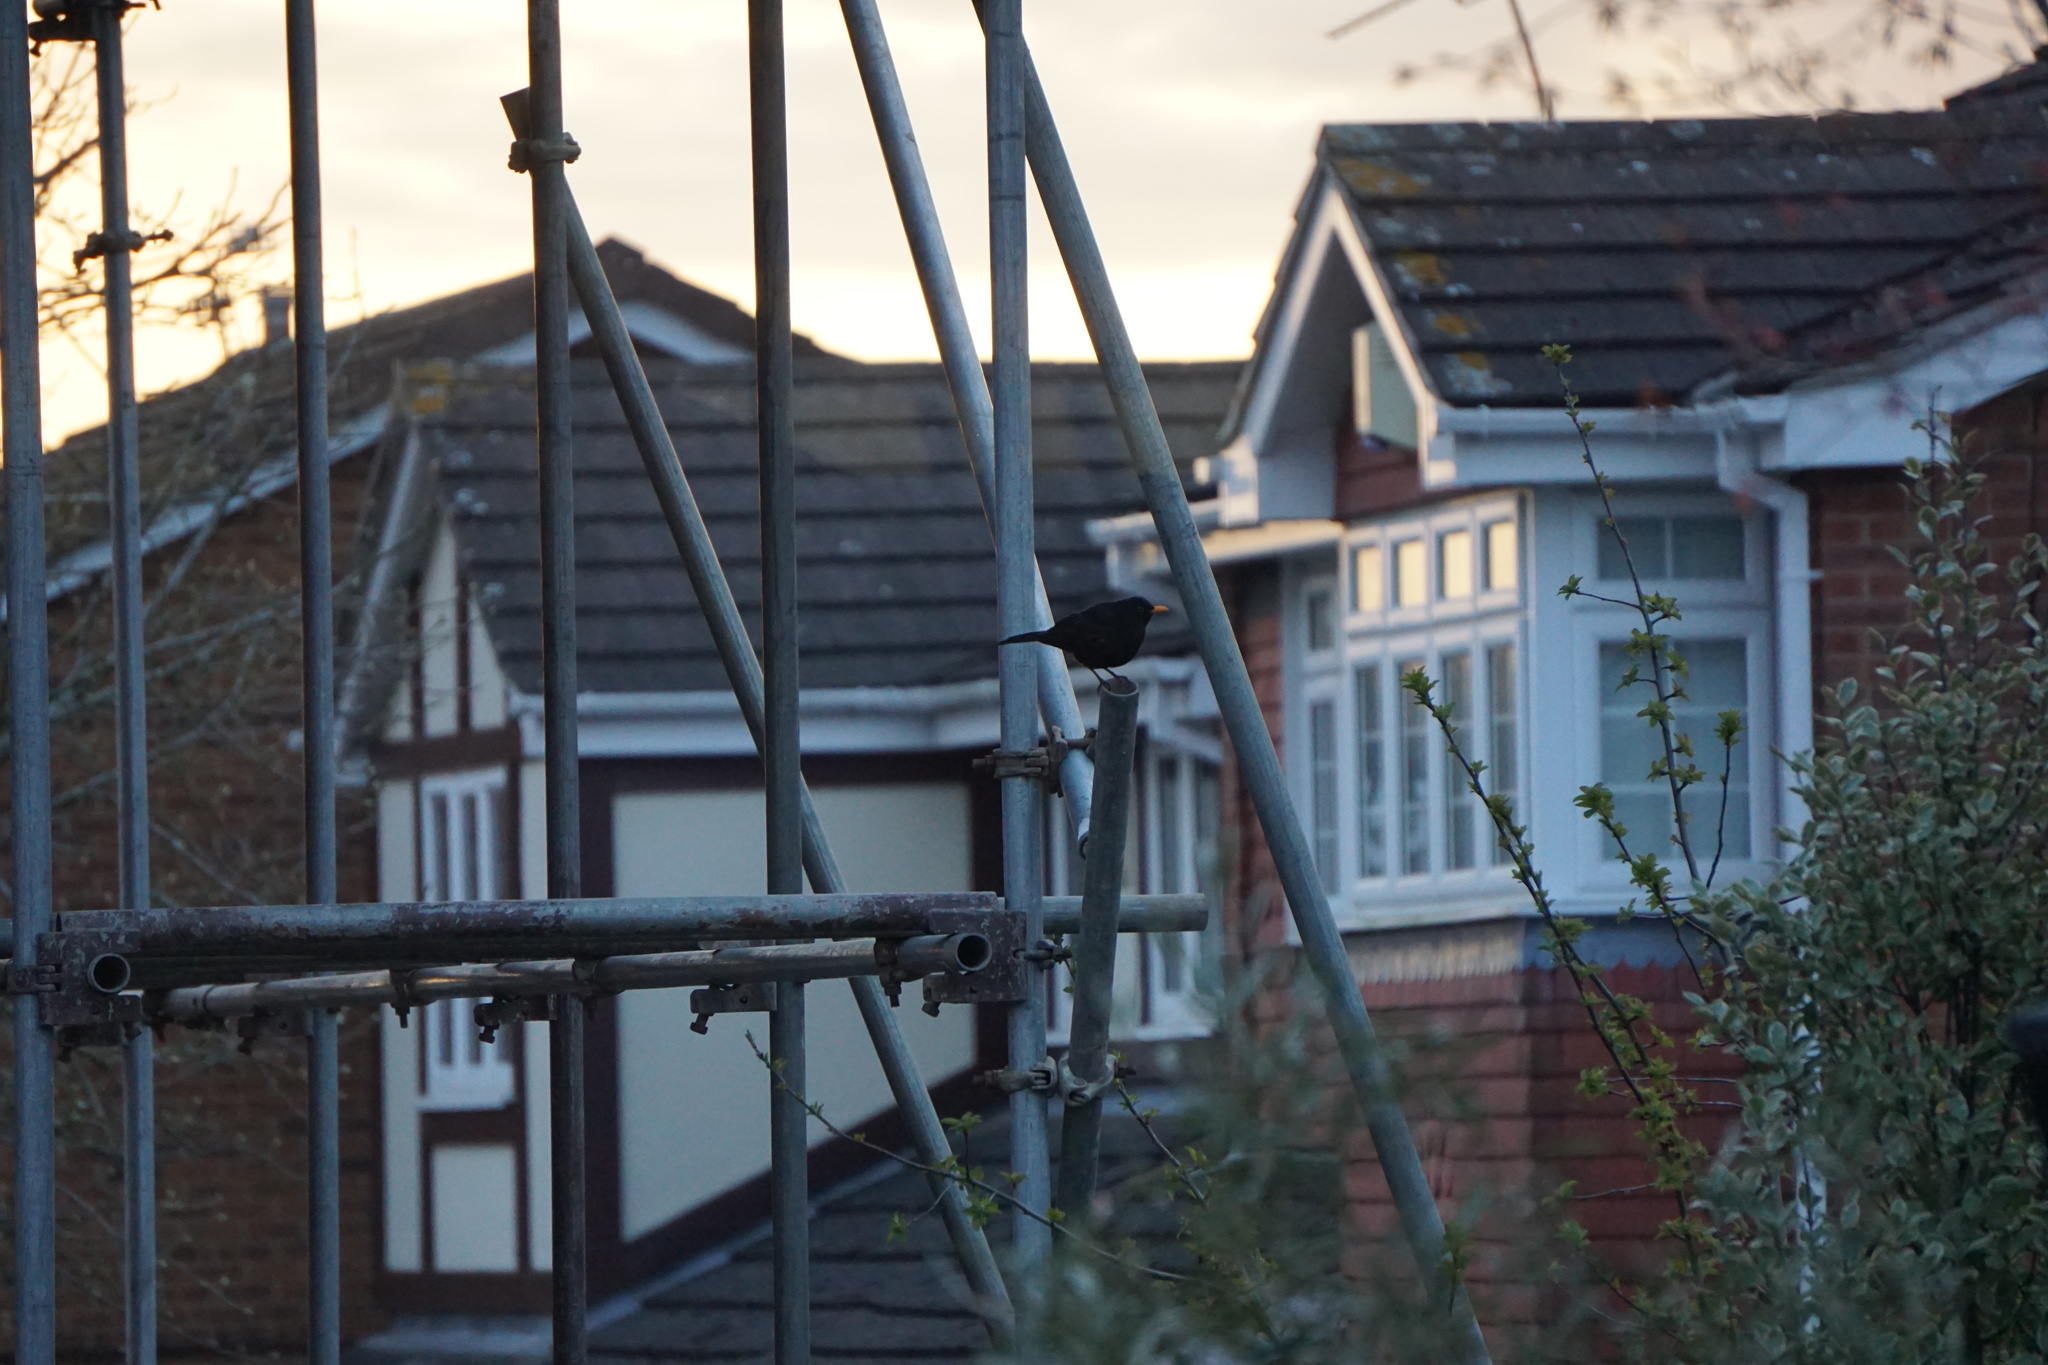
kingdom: Animalia
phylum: Chordata
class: Aves
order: Passeriformes
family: Turdidae
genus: Turdus
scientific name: Turdus merula
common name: Common blackbird
